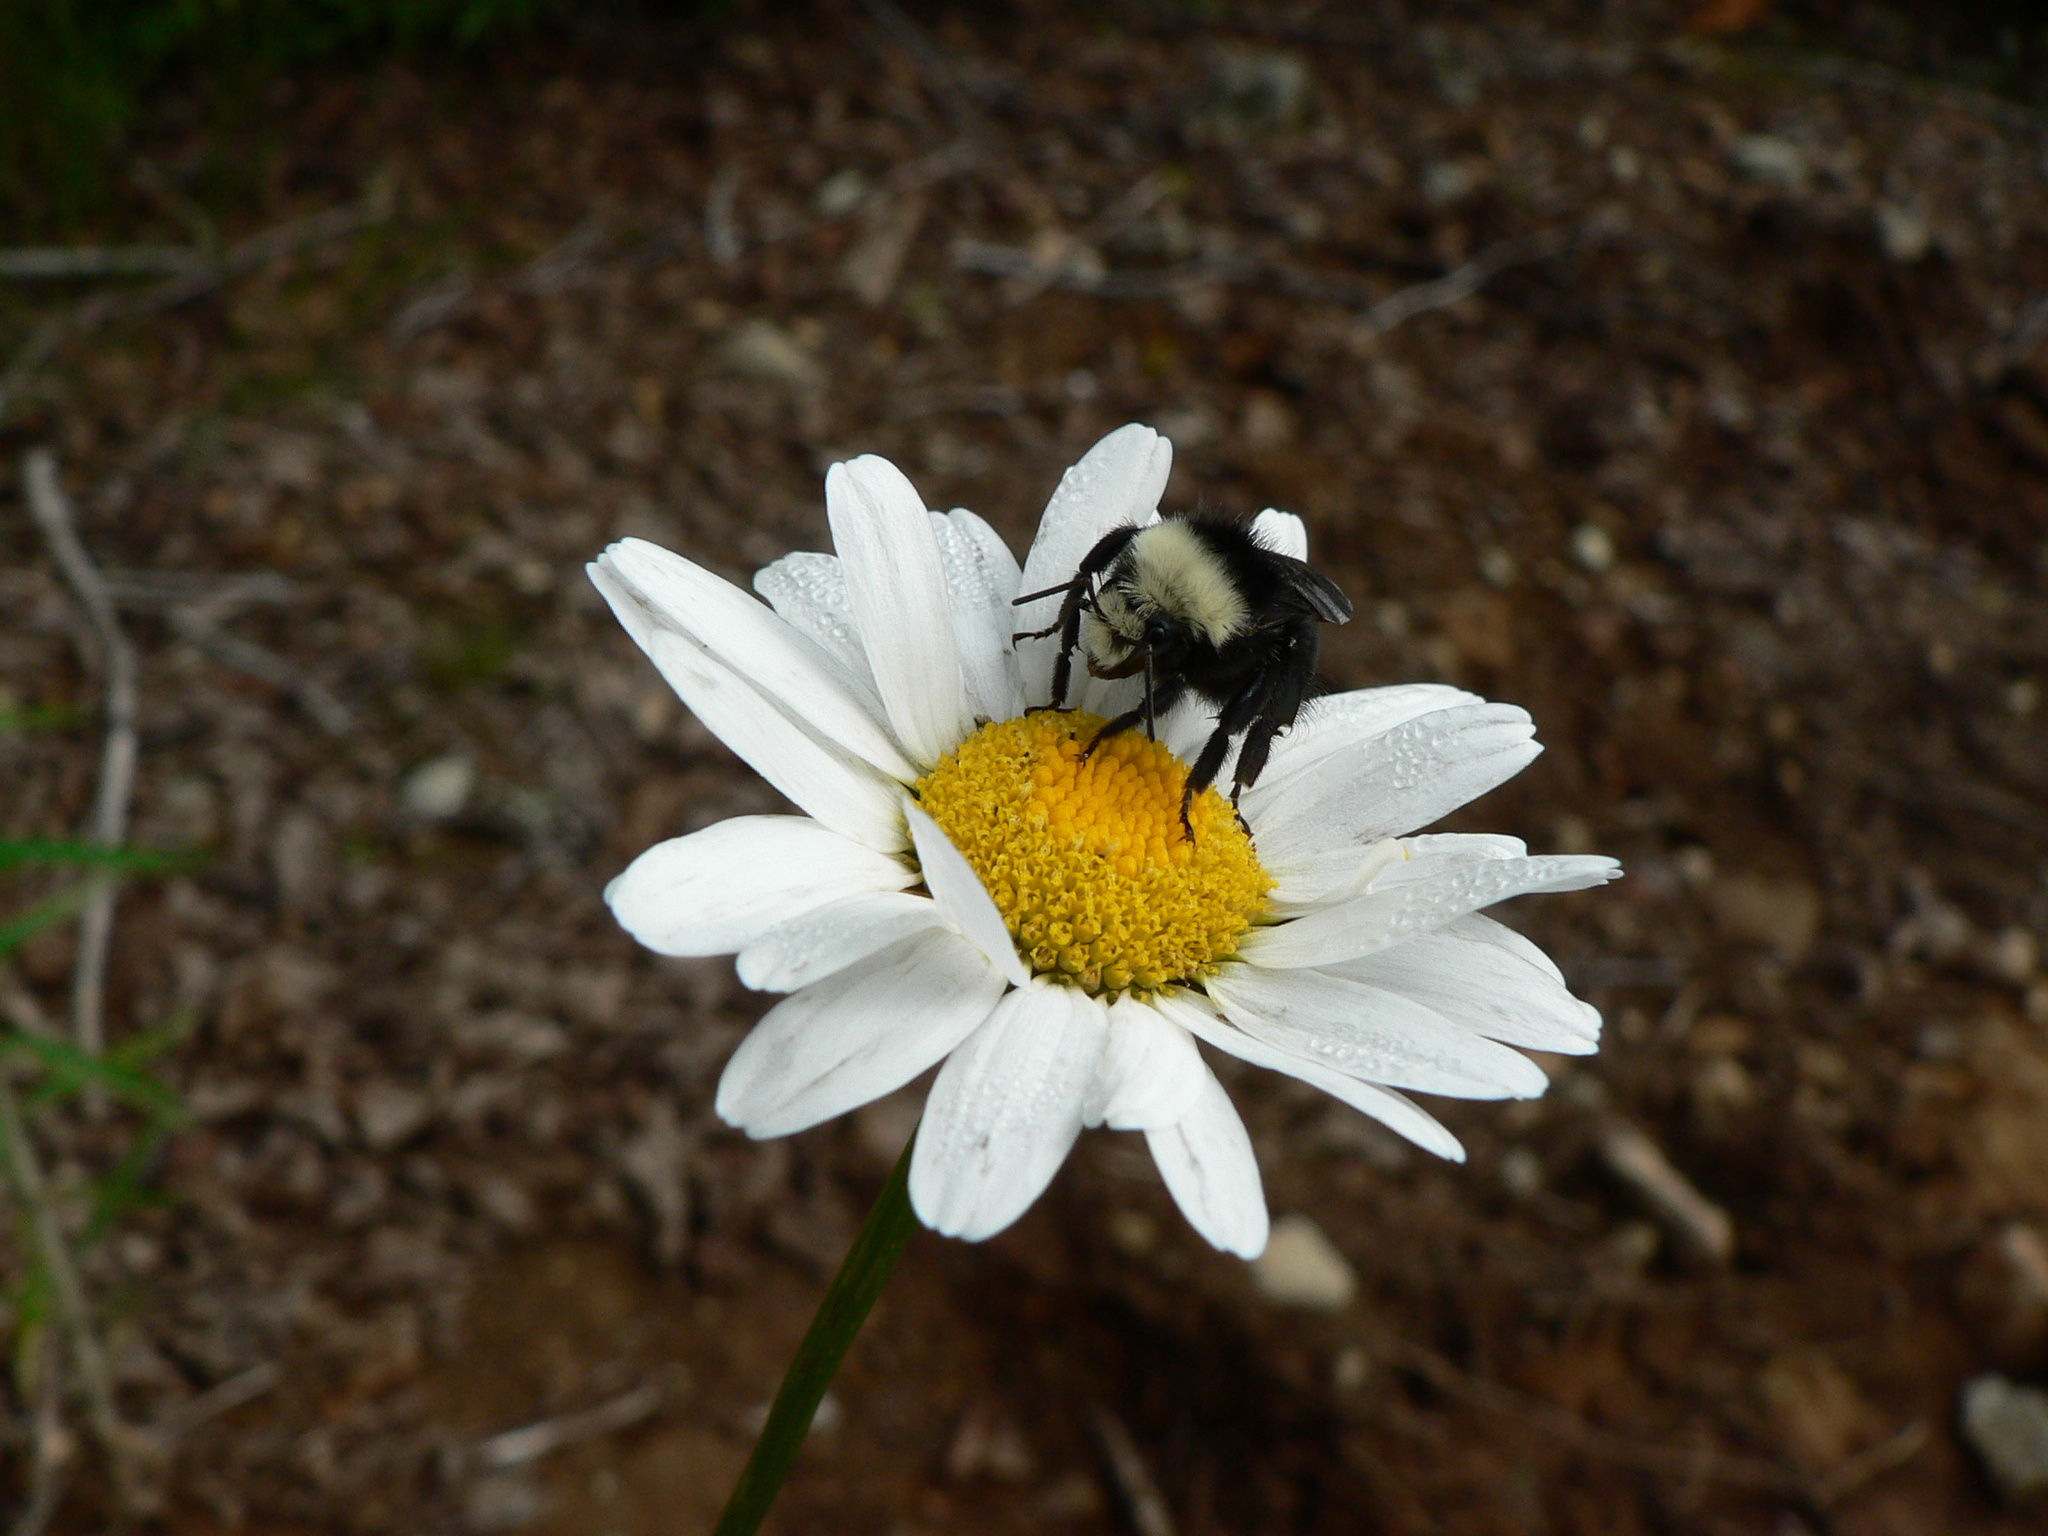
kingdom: Animalia
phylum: Arthropoda
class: Insecta
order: Hymenoptera
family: Apidae
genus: Bombus
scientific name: Bombus vosnesenskii
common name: Vosnesensky bumble bee
